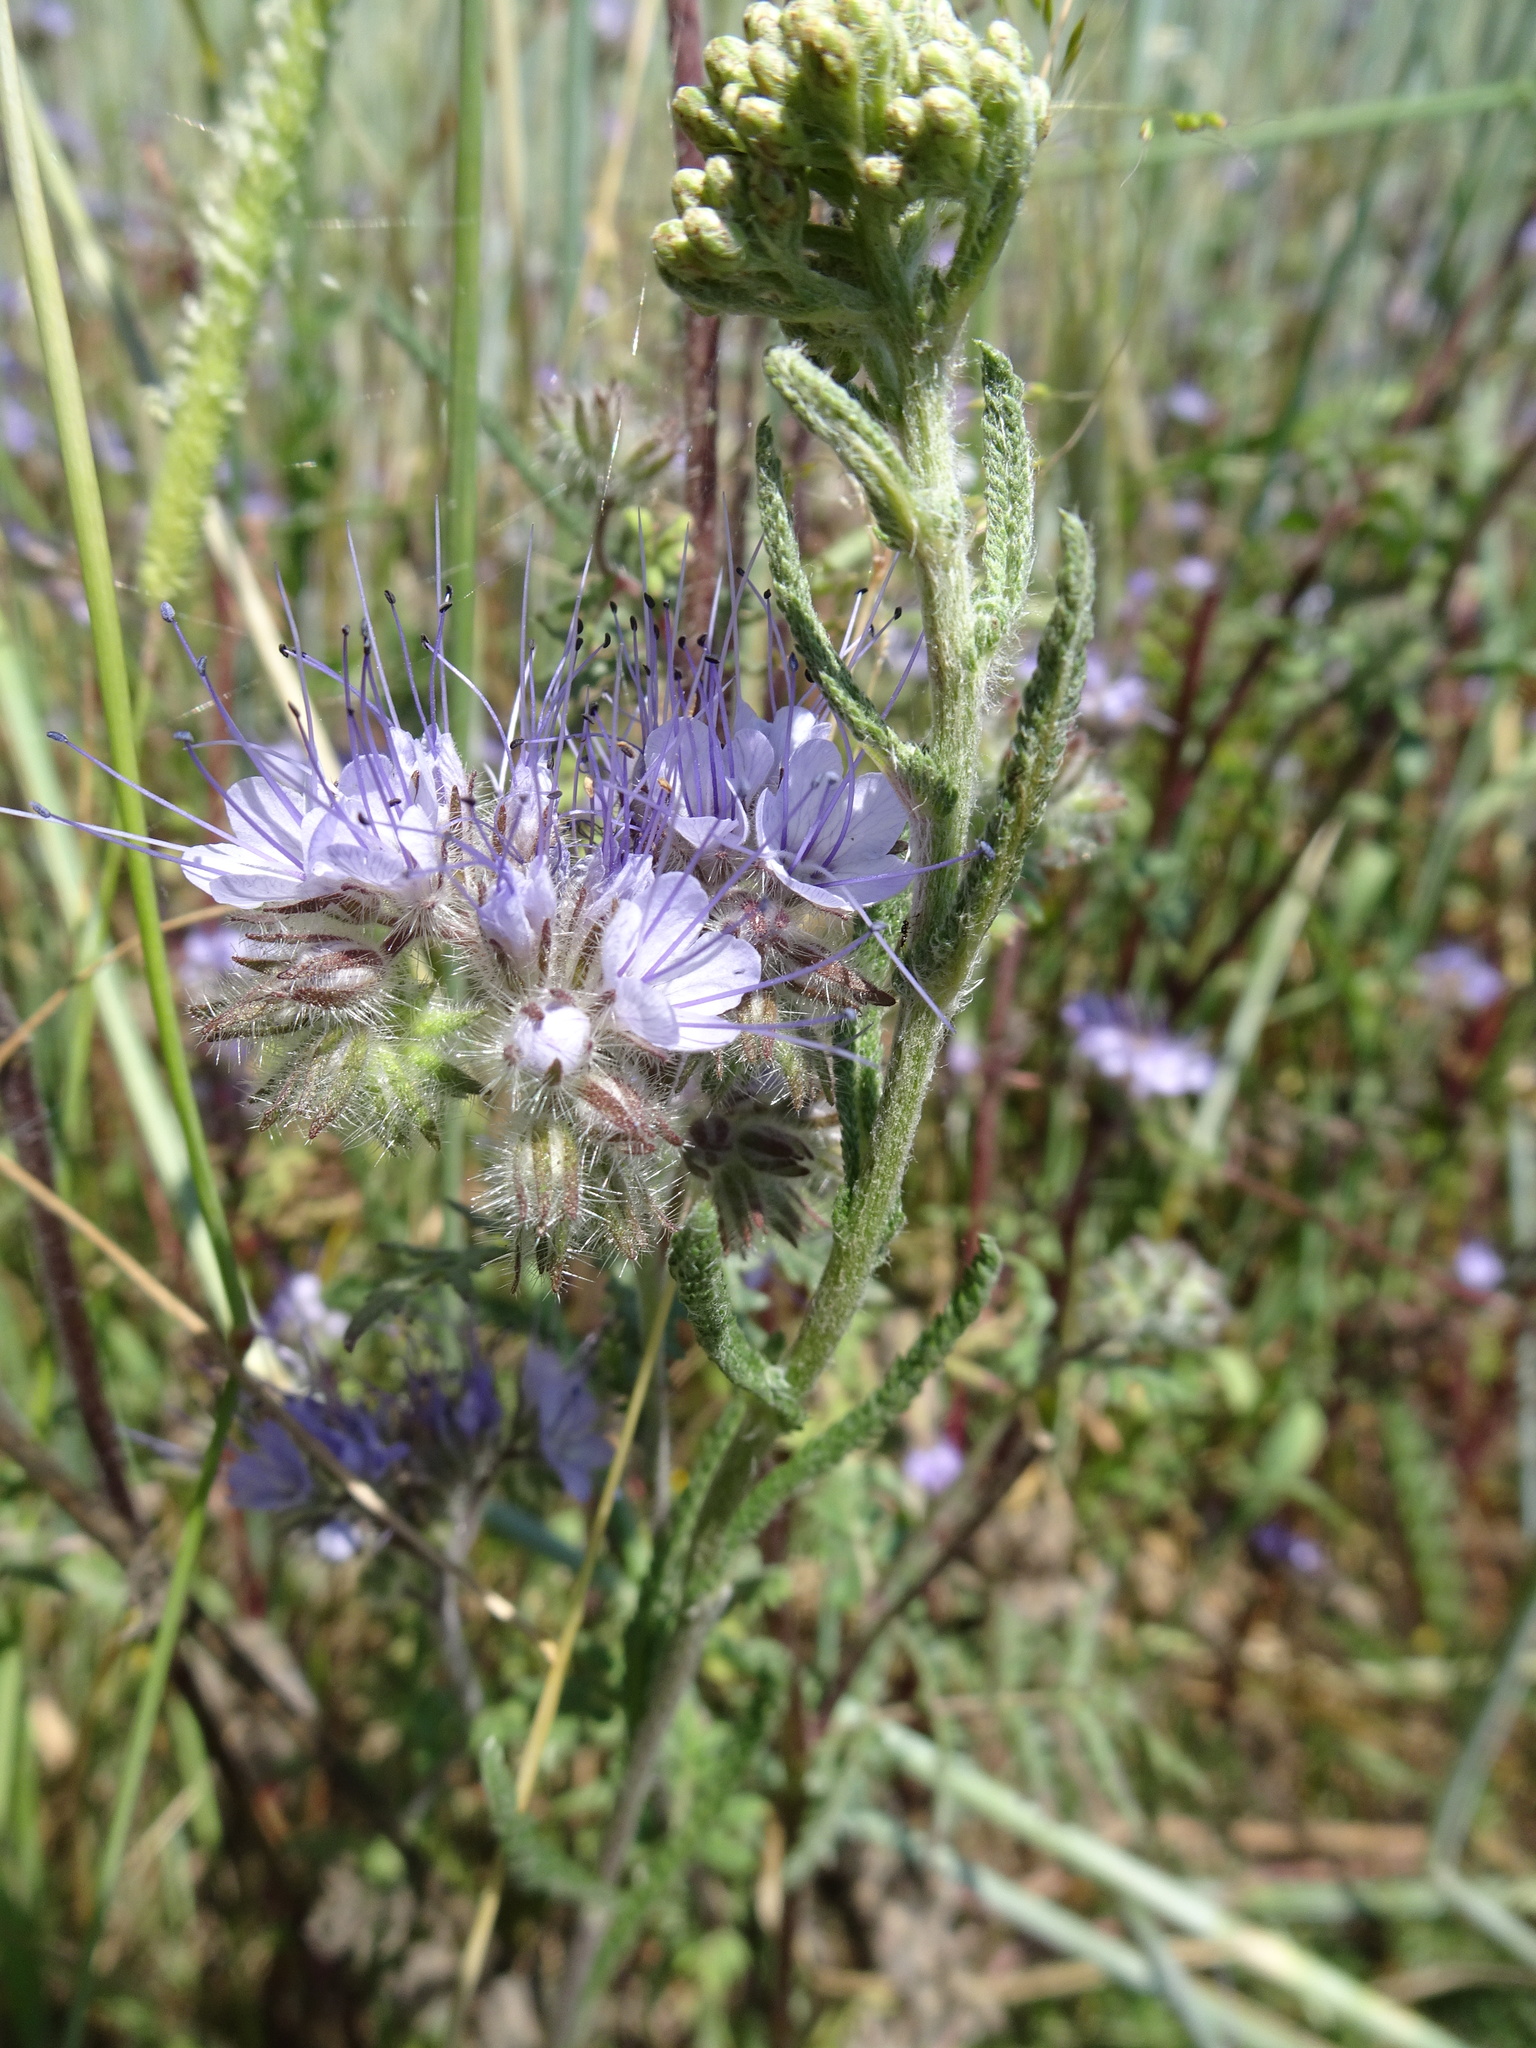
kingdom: Plantae
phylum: Tracheophyta
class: Magnoliopsida
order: Boraginales
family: Hydrophyllaceae
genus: Phacelia
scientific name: Phacelia tanacetifolia
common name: Phacelia
